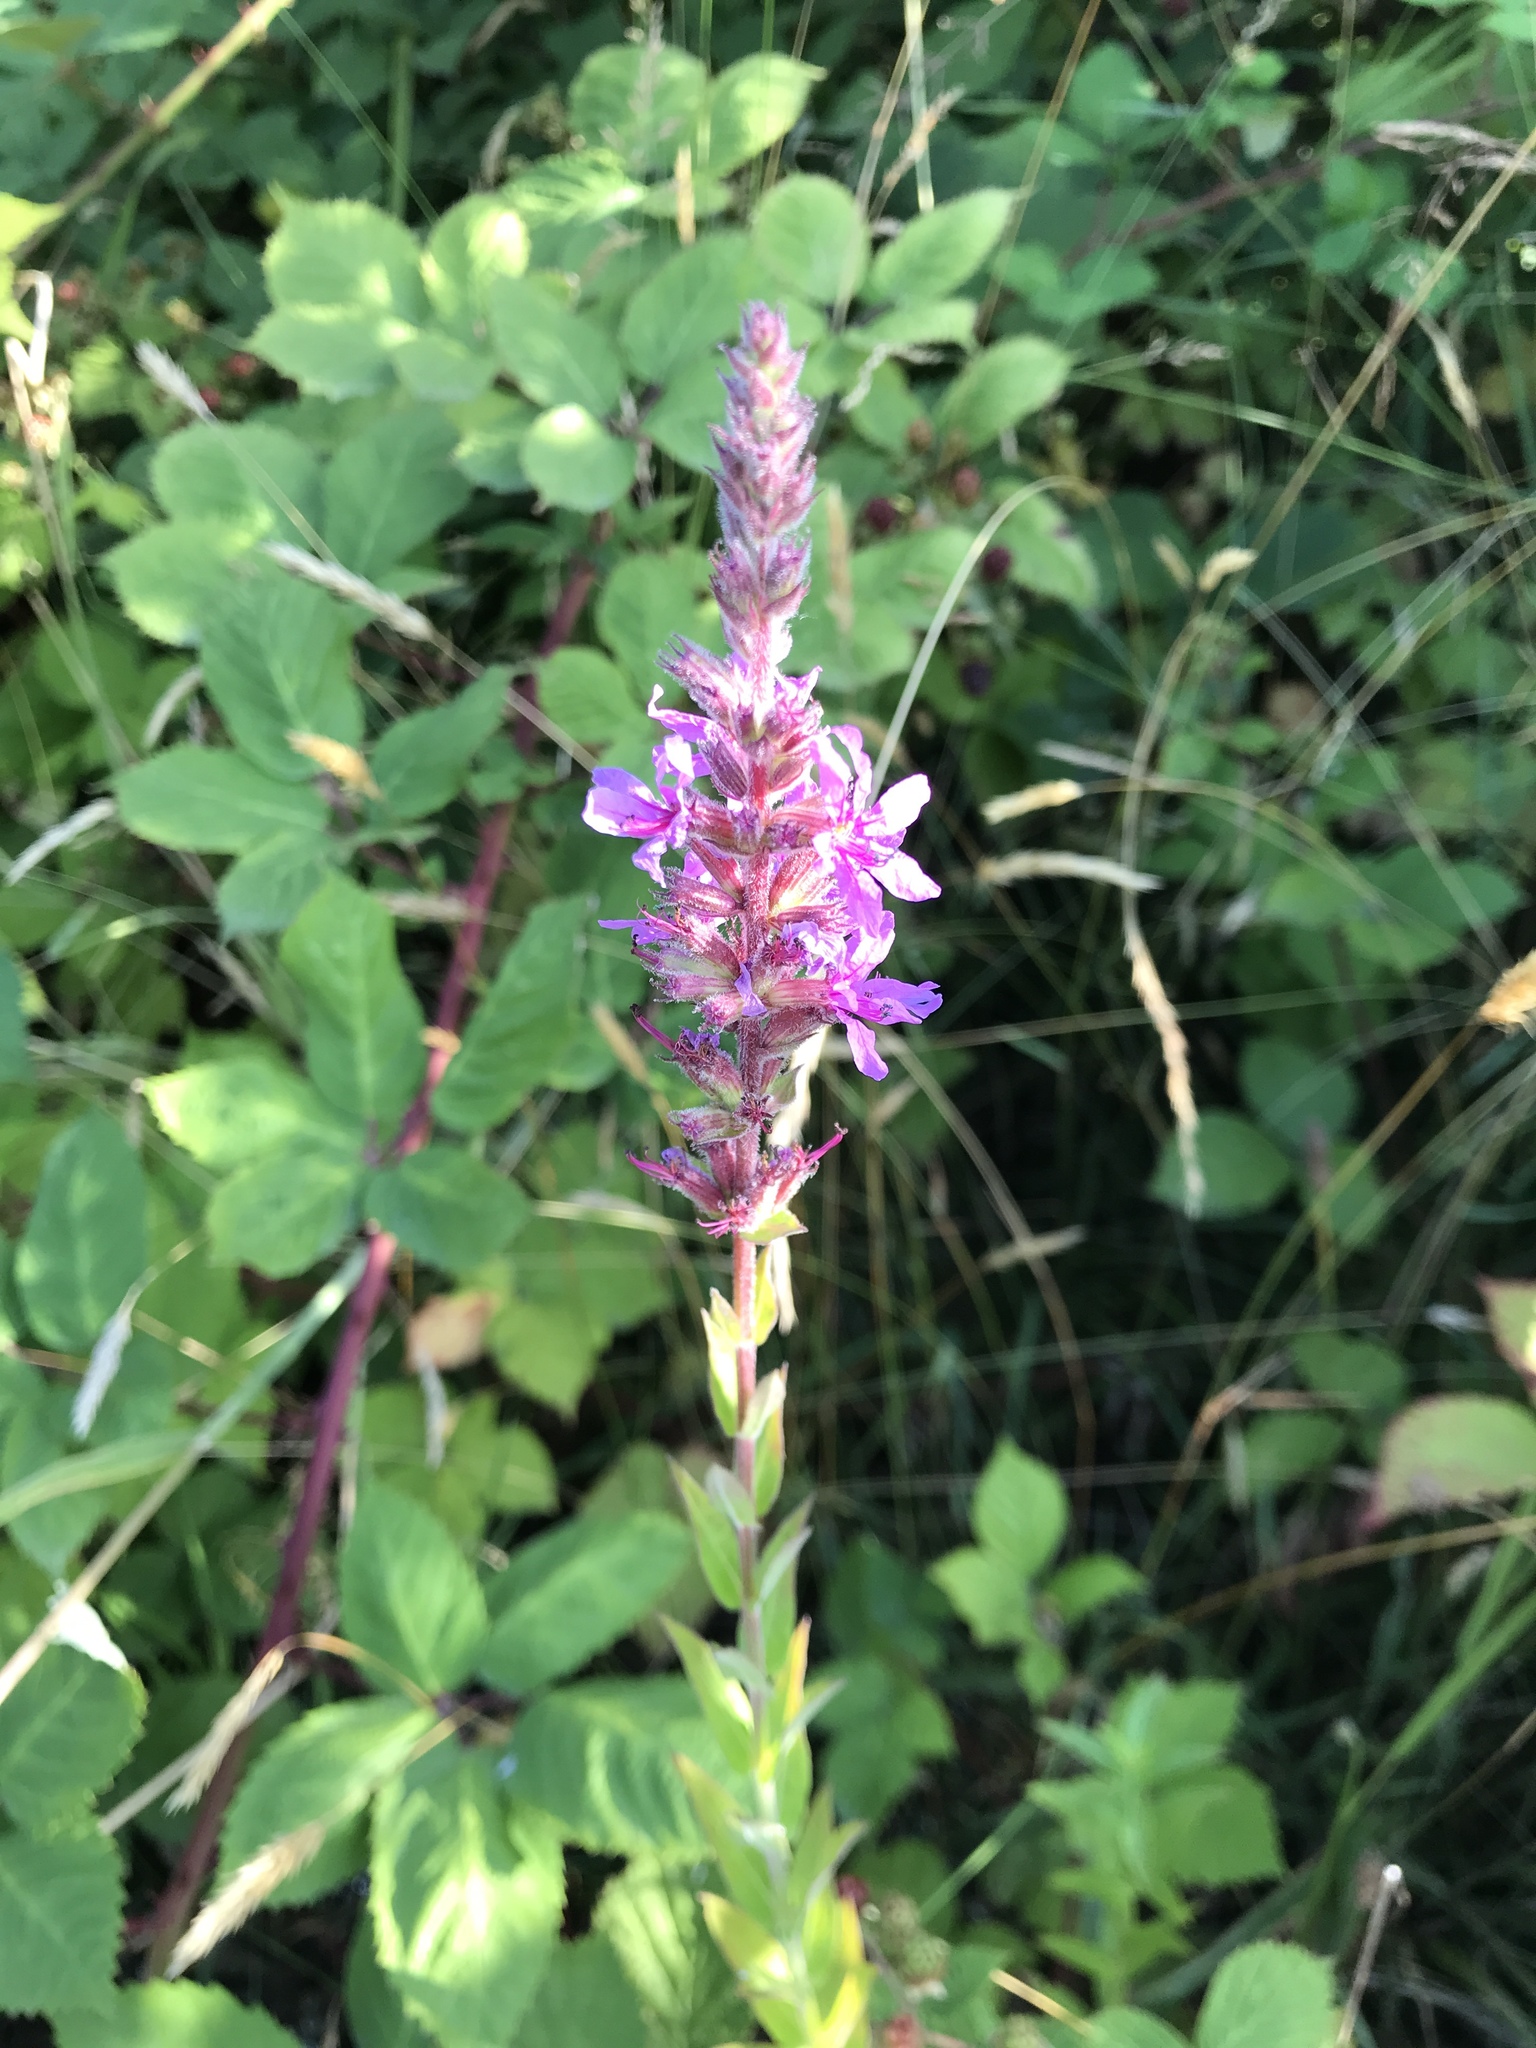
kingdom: Plantae
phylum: Tracheophyta
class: Magnoliopsida
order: Myrtales
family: Lythraceae
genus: Lythrum
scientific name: Lythrum salicaria
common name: Purple loosestrife
